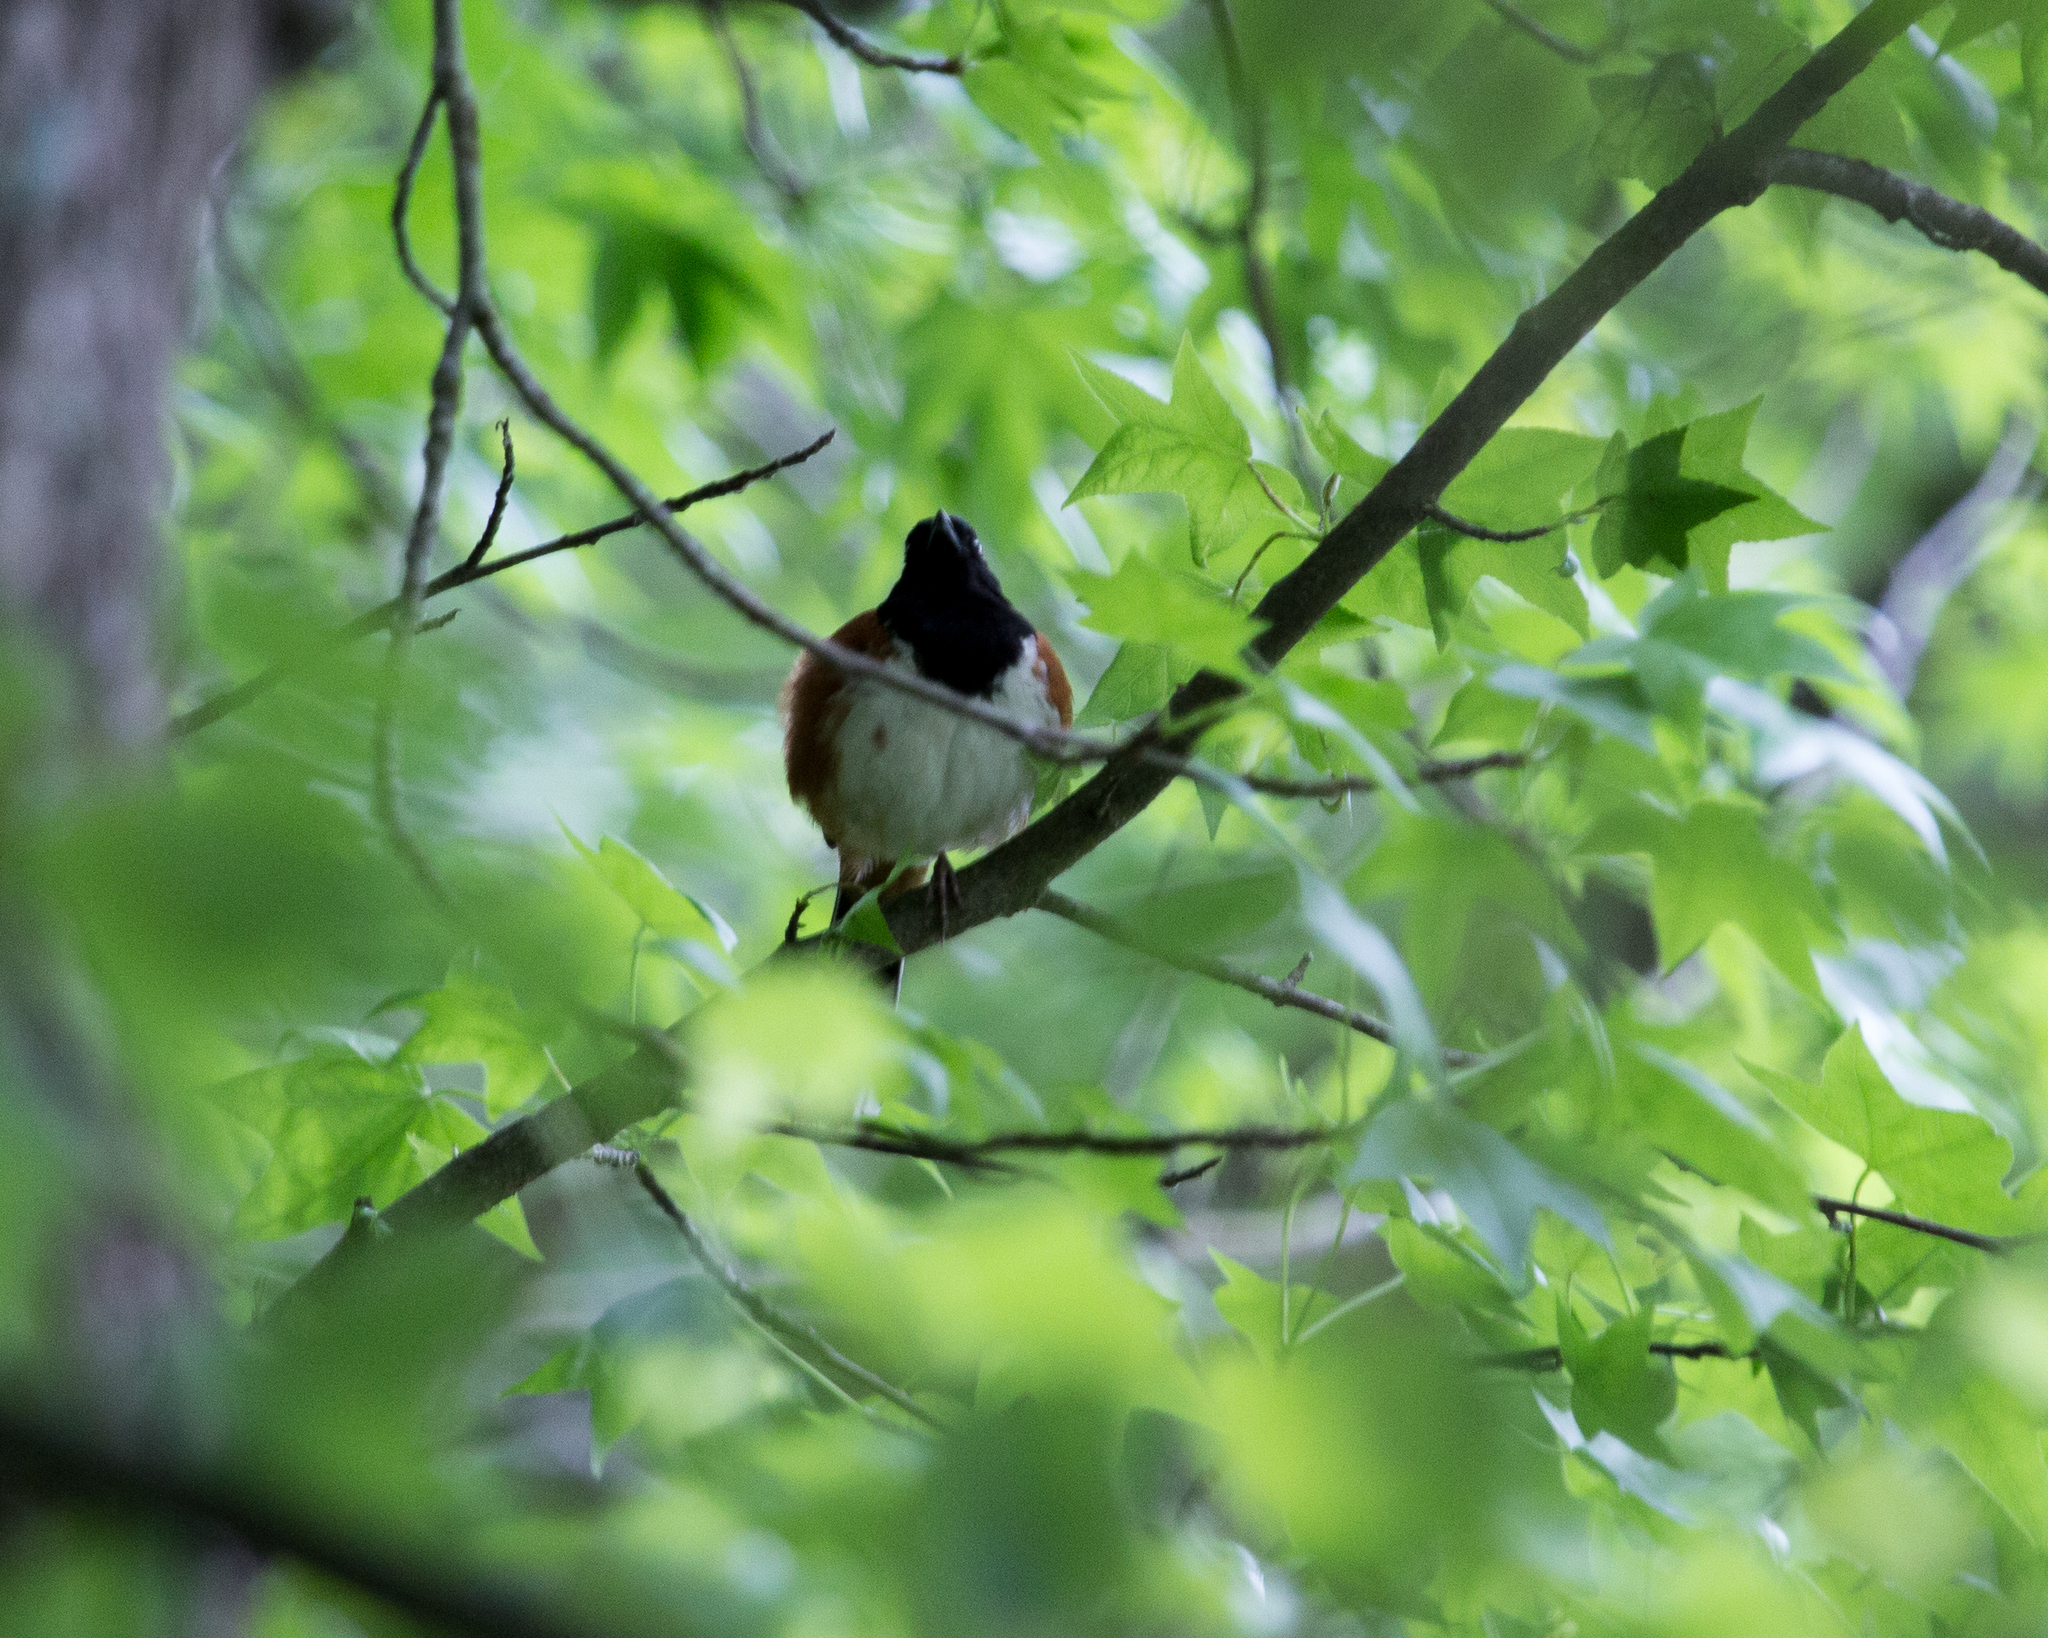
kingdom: Animalia
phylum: Chordata
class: Aves
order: Passeriformes
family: Passerellidae
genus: Pipilo
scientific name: Pipilo erythrophthalmus
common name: Eastern towhee
